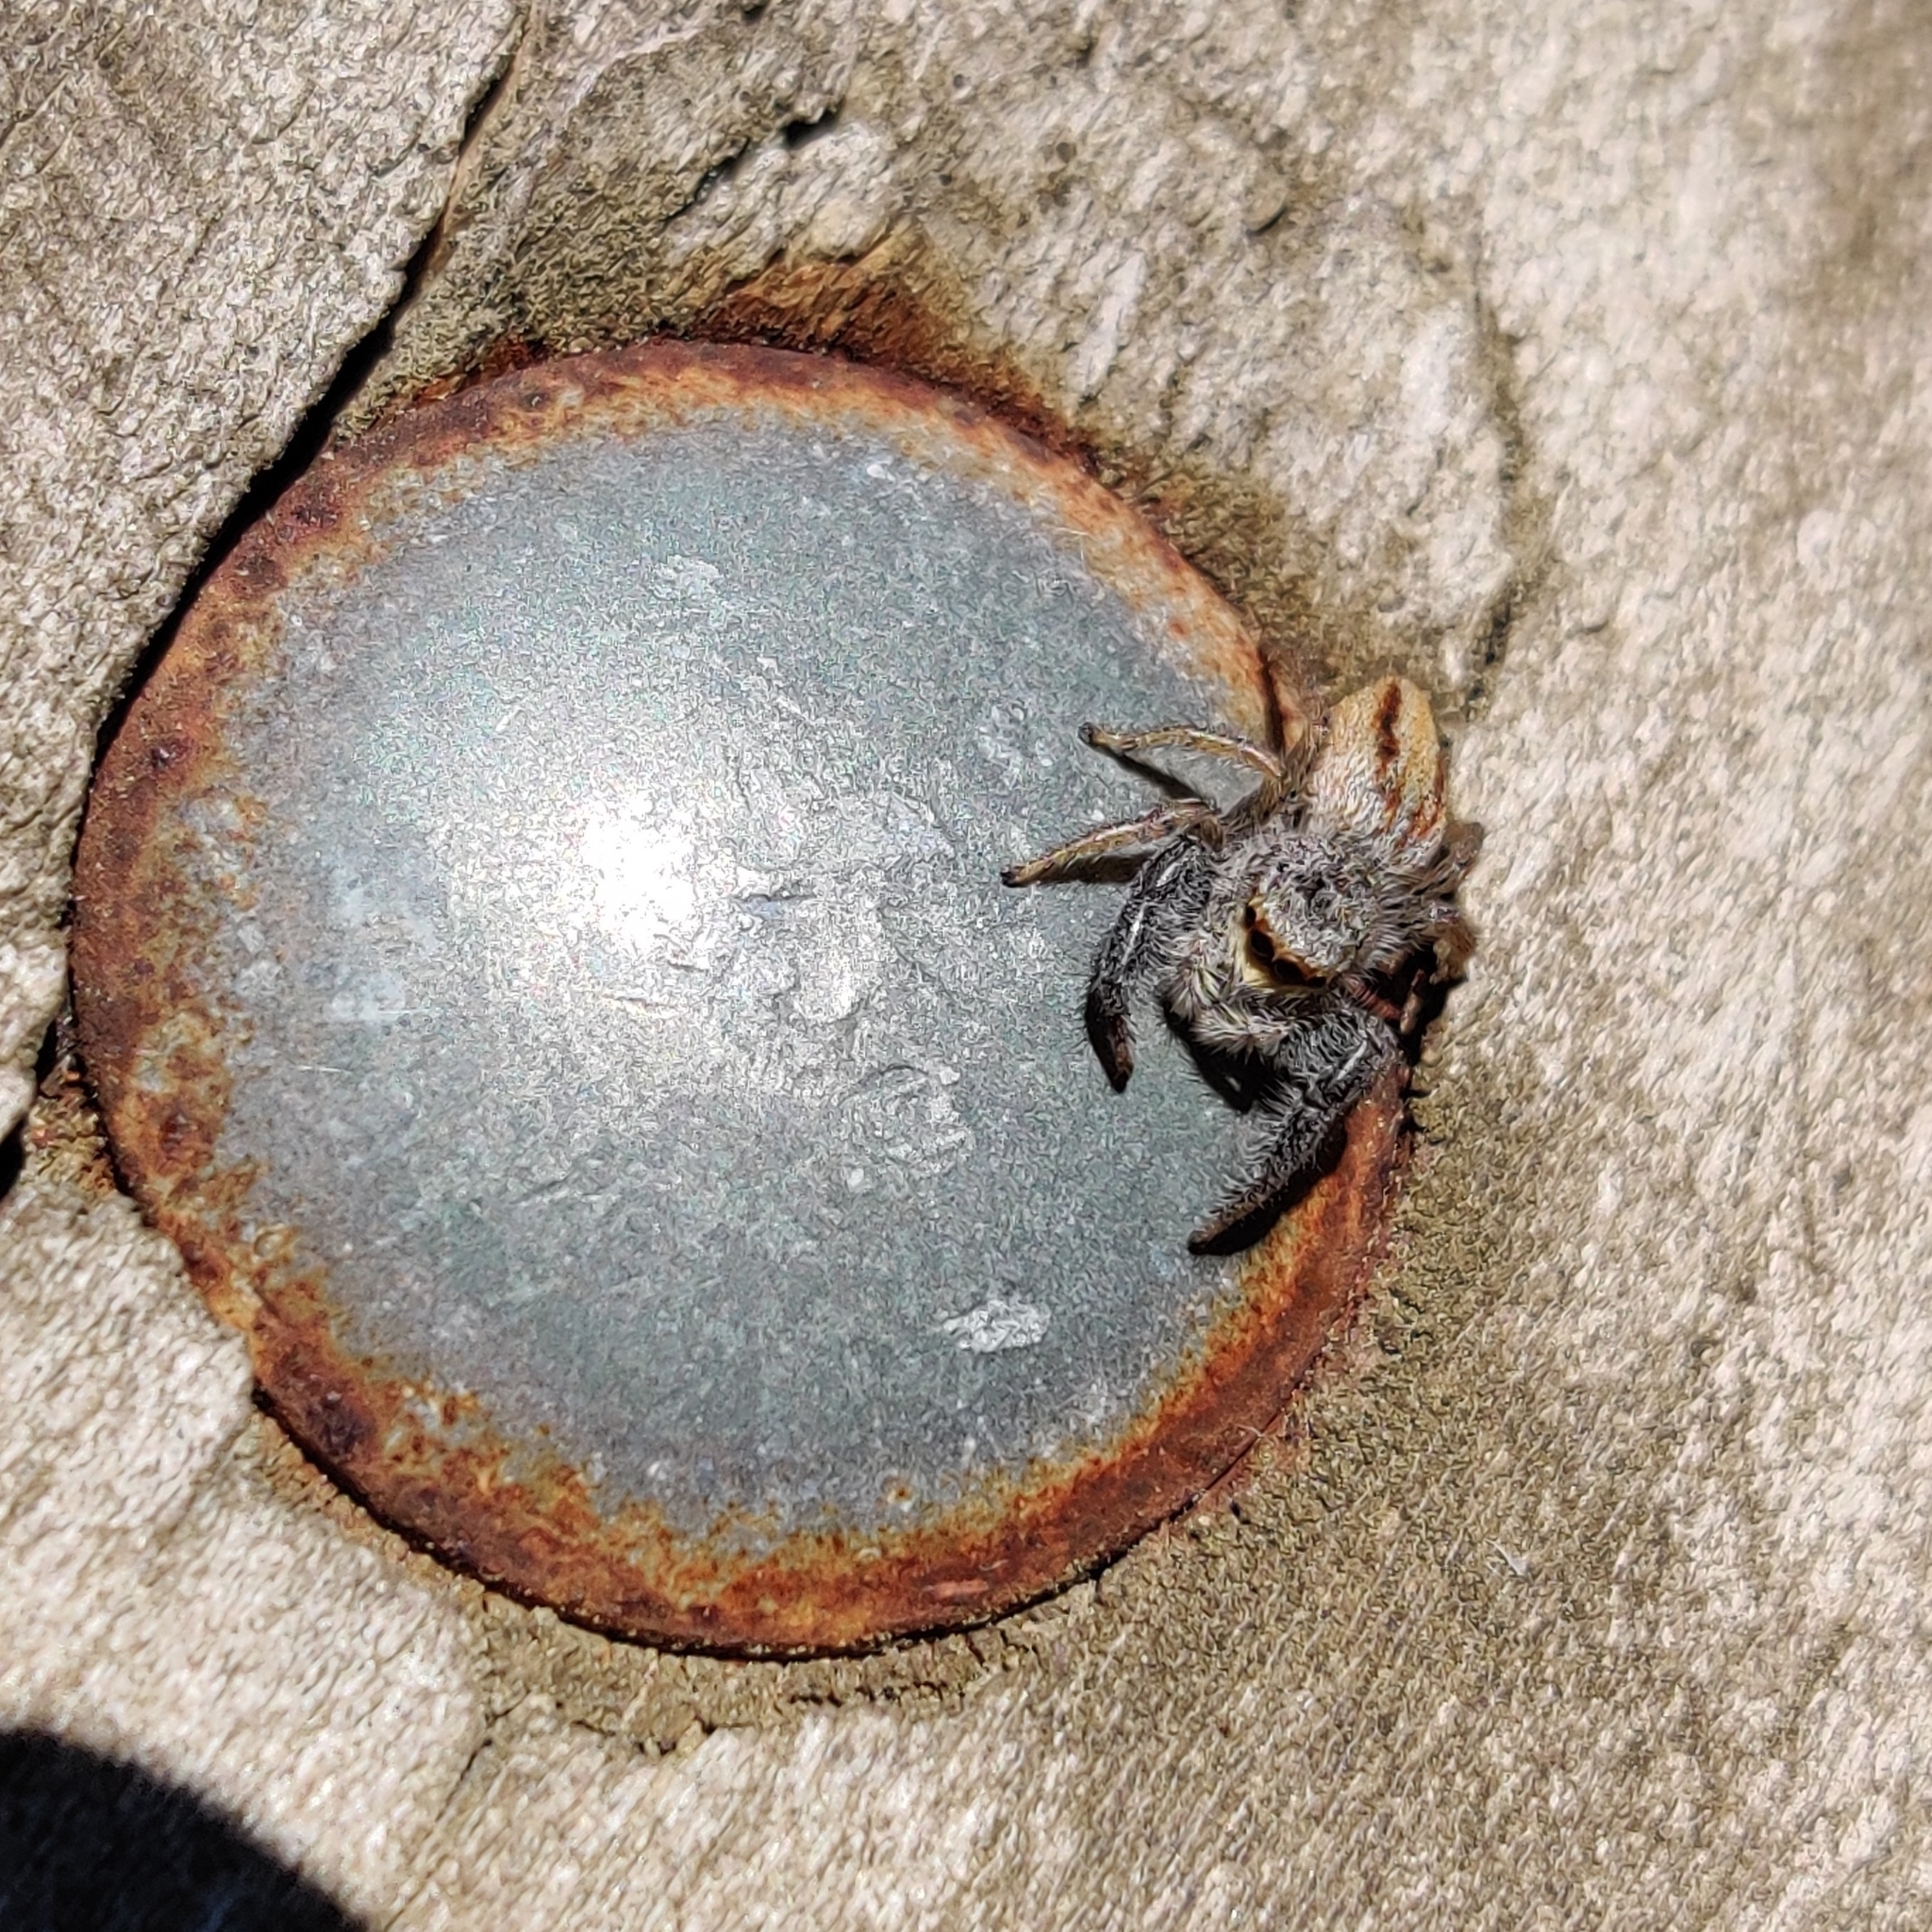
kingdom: Animalia
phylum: Arthropoda
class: Arachnida
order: Araneae
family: Salticidae
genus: Marpissa
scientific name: Marpissa radiata
